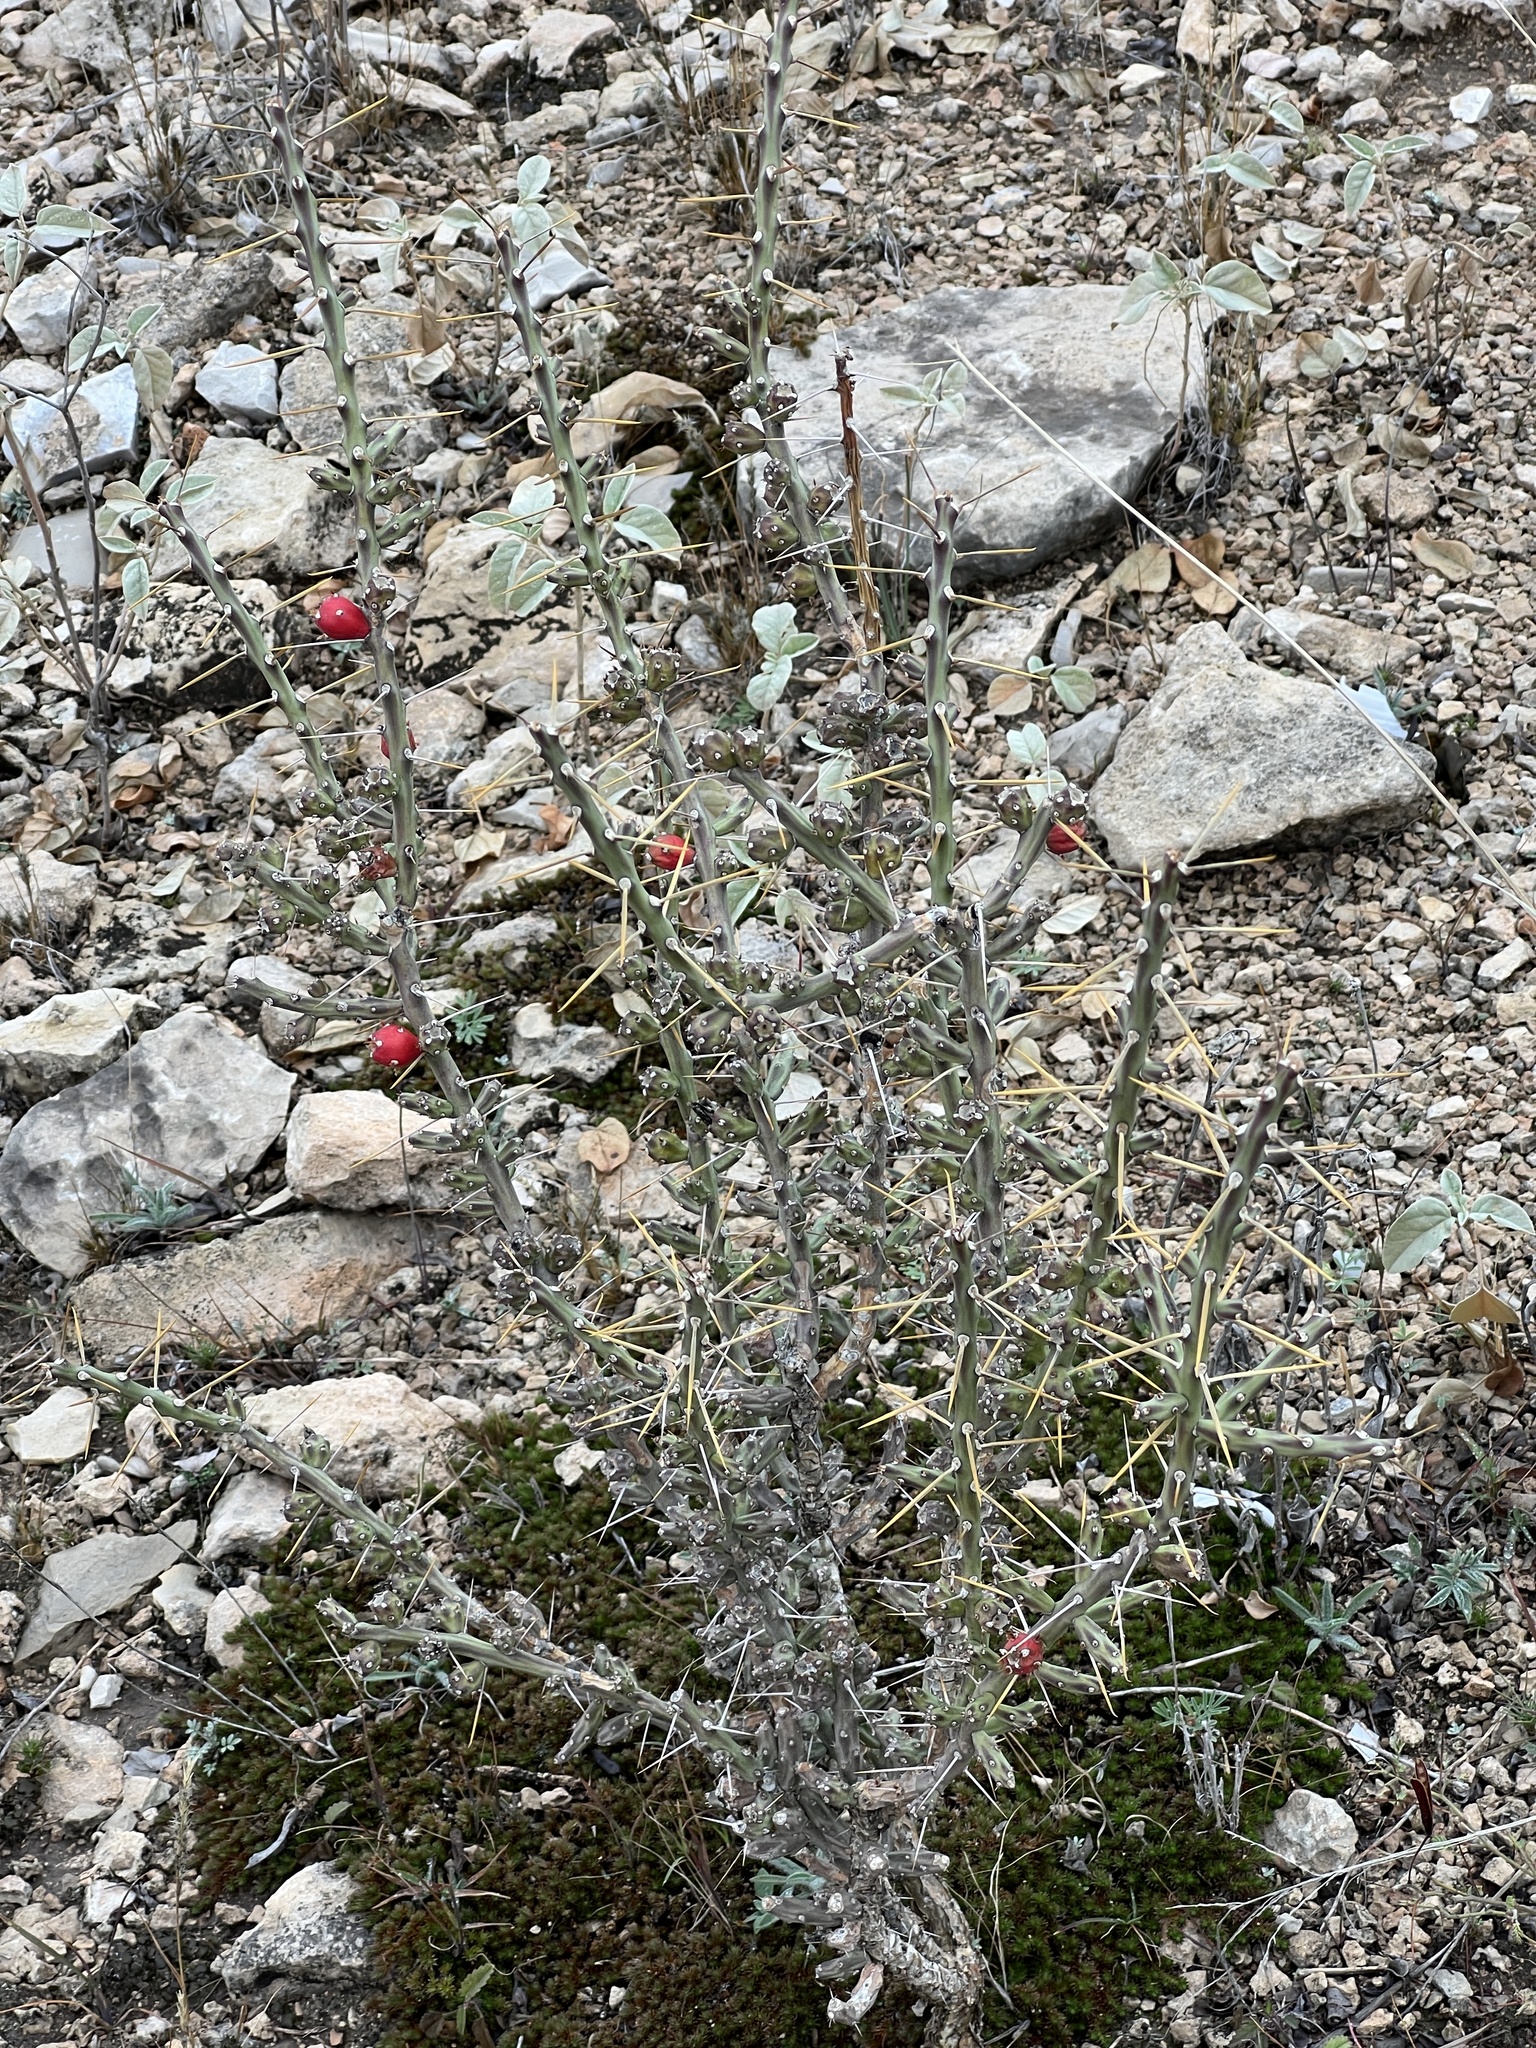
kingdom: Plantae
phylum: Tracheophyta
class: Magnoliopsida
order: Caryophyllales
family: Cactaceae
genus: Cylindropuntia
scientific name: Cylindropuntia leptocaulis
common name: Christmas cactus
